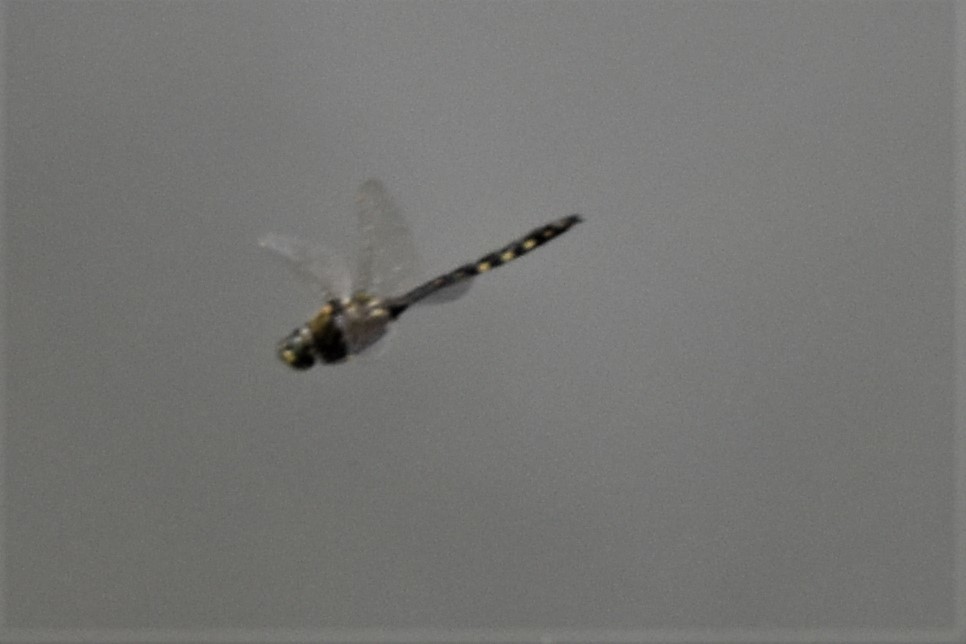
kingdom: Animalia
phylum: Arthropoda
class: Insecta
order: Odonata
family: Corduliidae
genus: Procordulia
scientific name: Procordulia grayi
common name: Yellow spotted dragonfly
